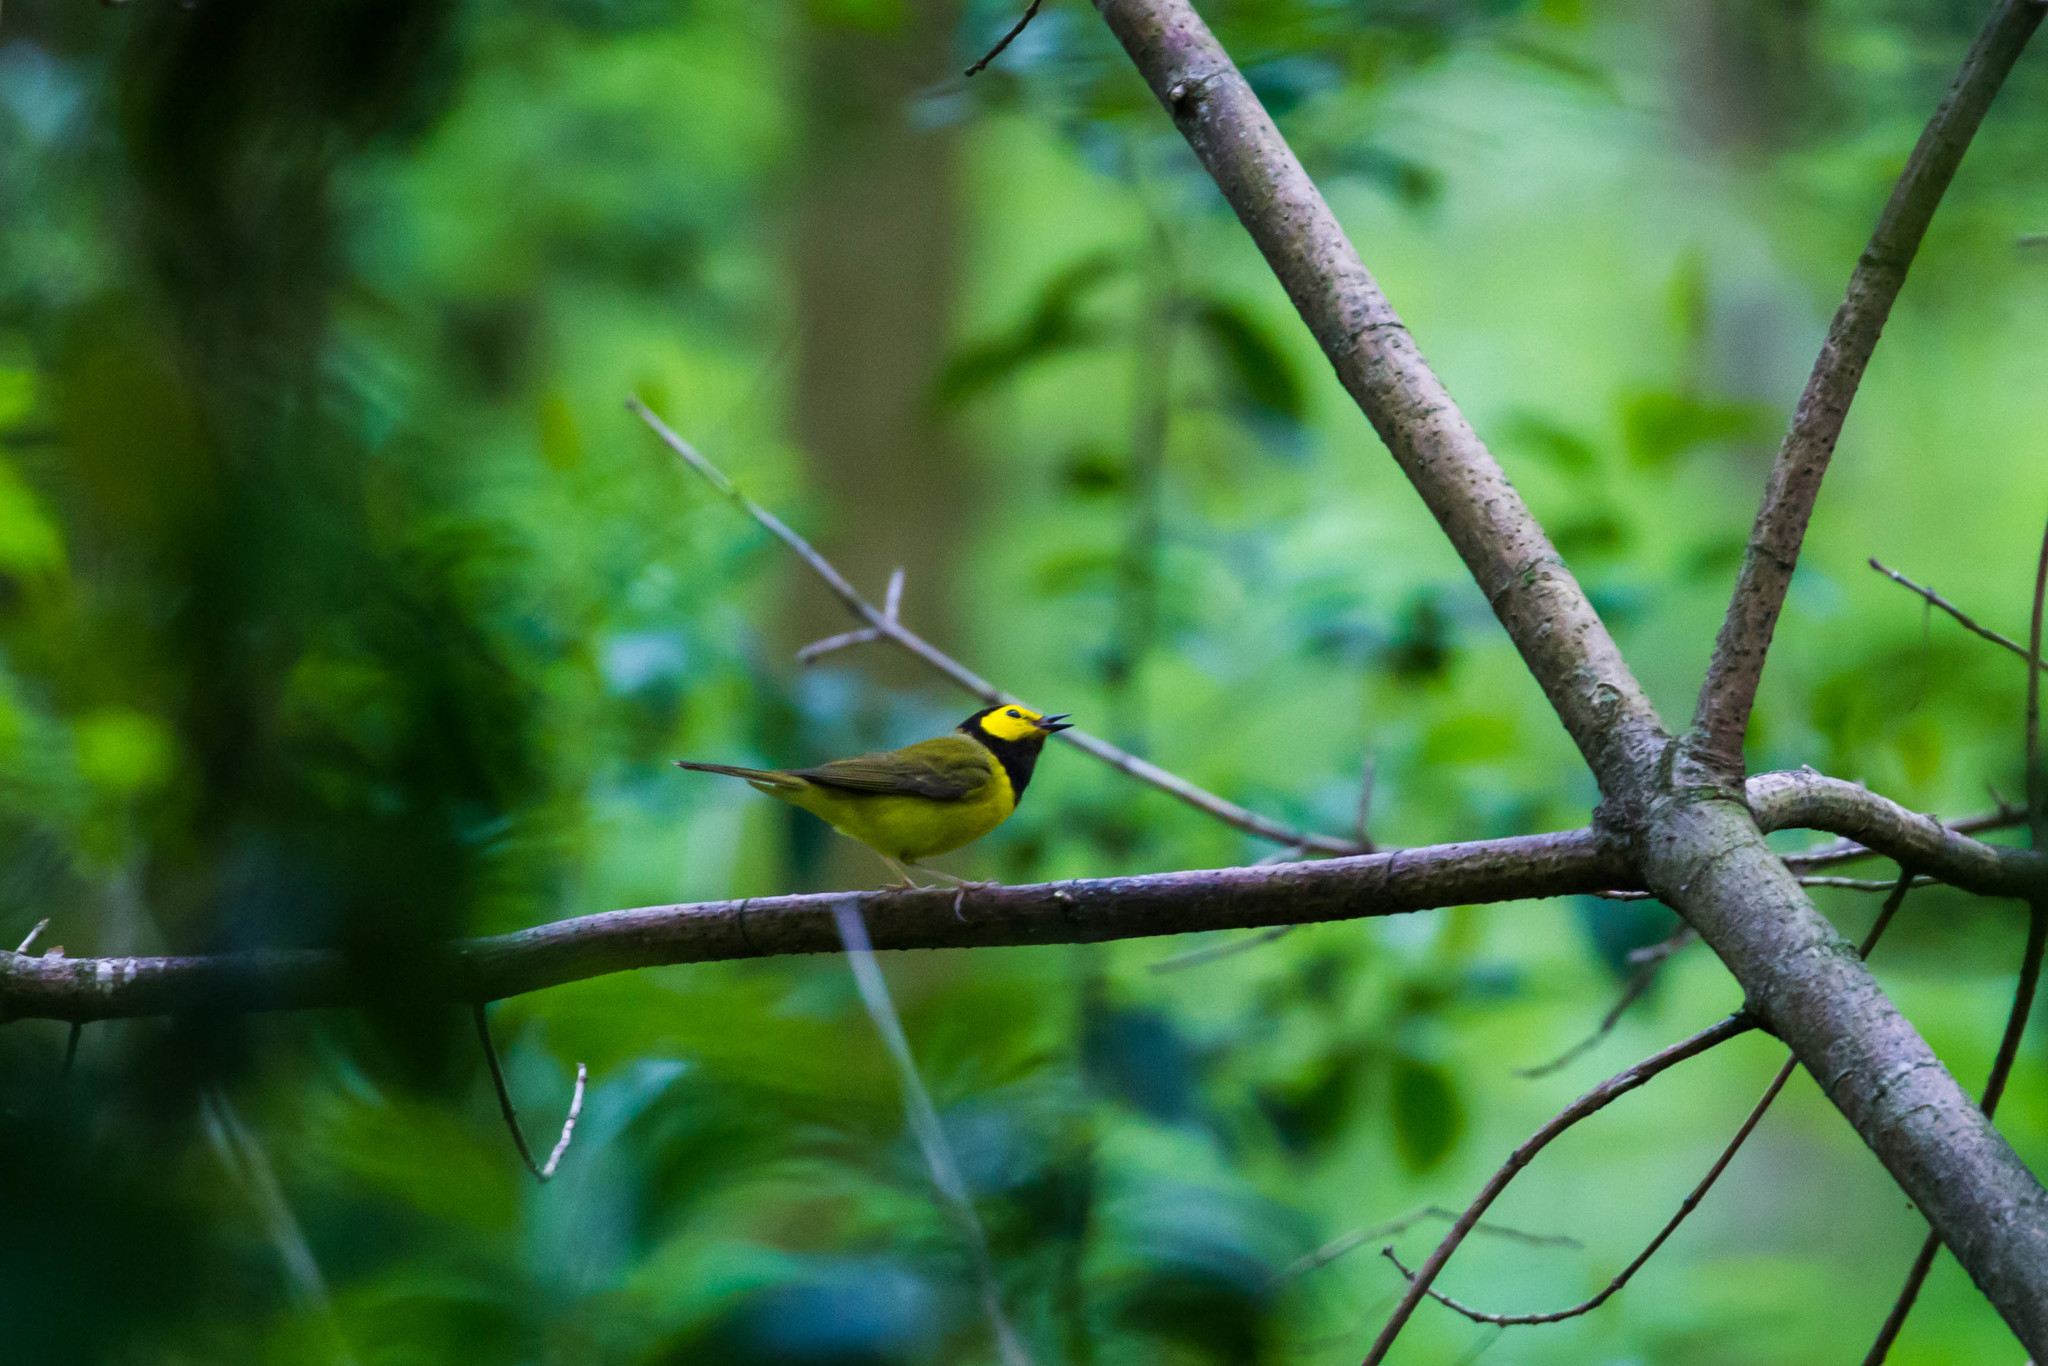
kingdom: Animalia
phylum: Chordata
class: Aves
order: Passeriformes
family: Parulidae
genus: Setophaga
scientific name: Setophaga citrina
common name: Hooded warbler
